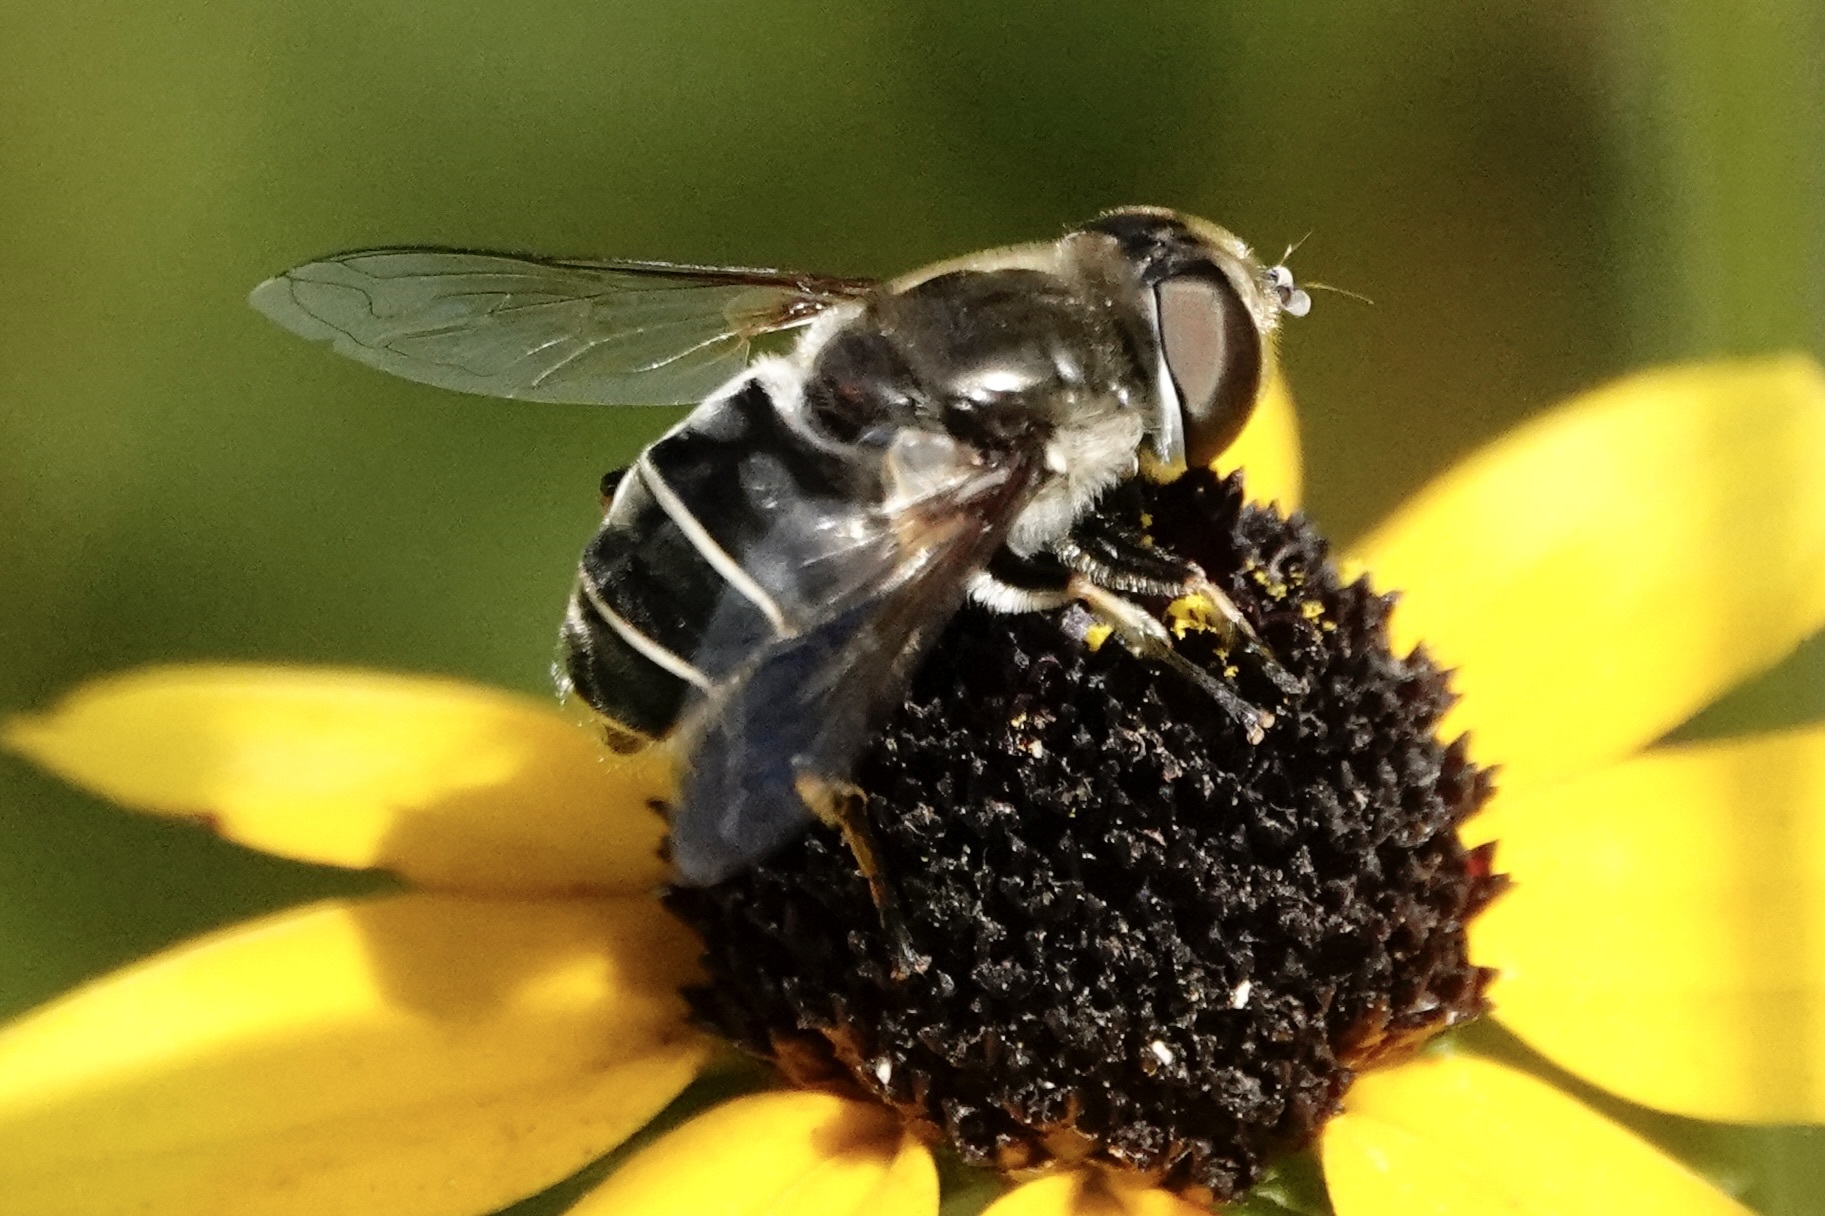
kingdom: Animalia
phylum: Arthropoda
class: Insecta
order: Diptera
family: Syrphidae
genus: Eristalis
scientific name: Eristalis dimidiata
